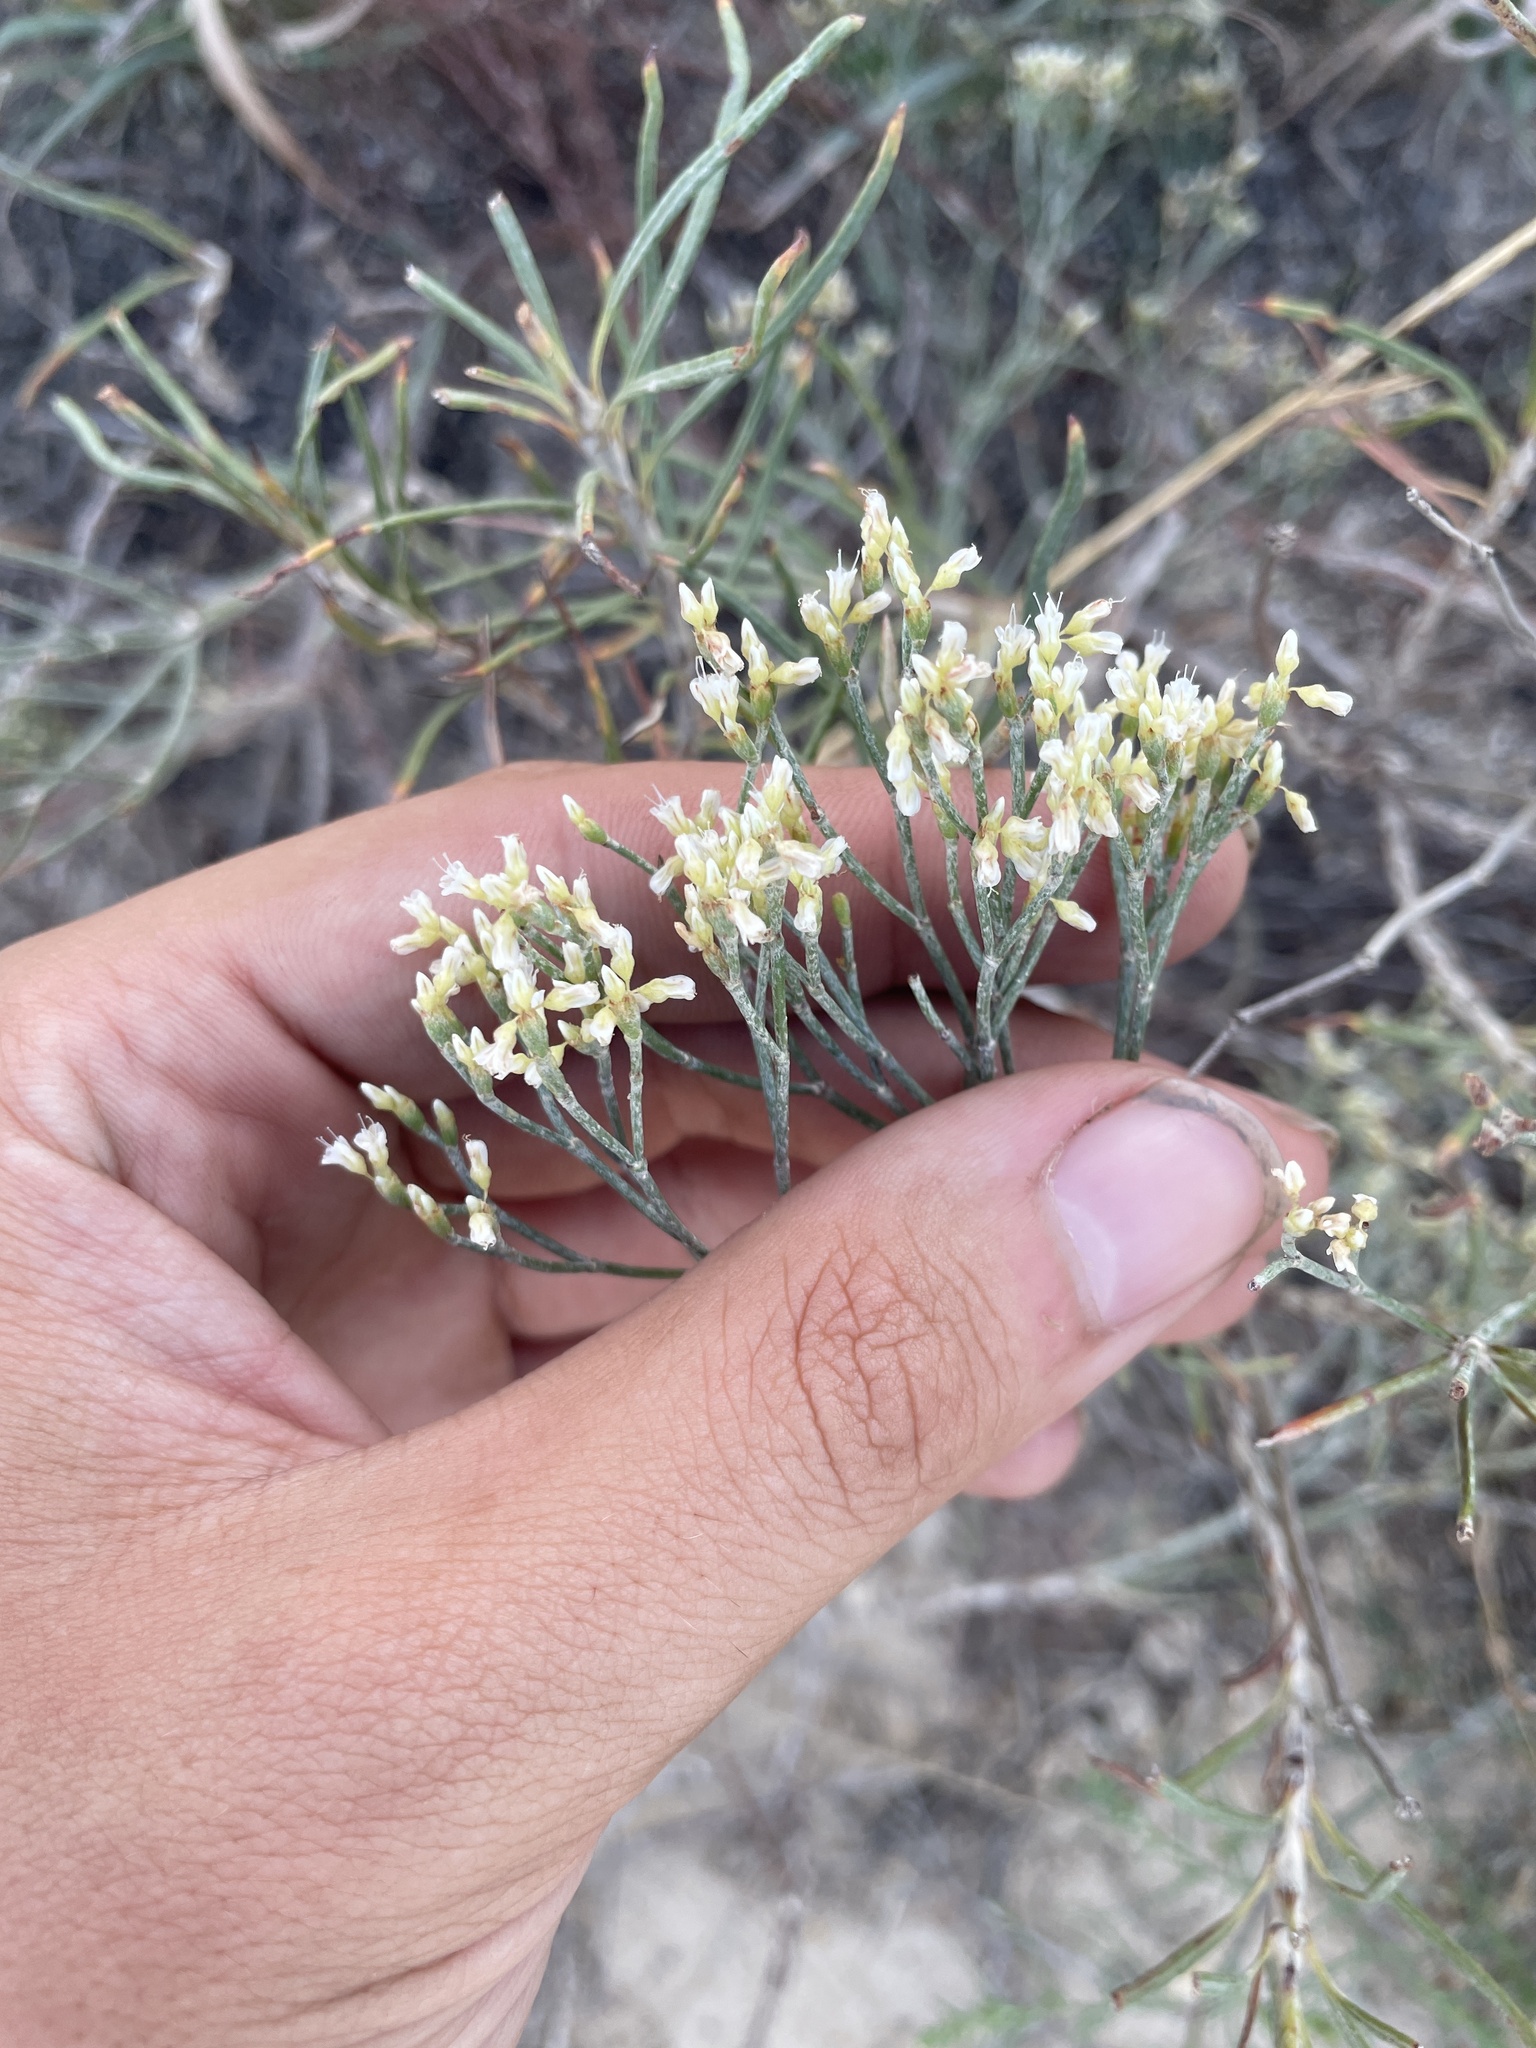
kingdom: Plantae
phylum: Tracheophyta
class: Magnoliopsida
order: Caryophyllales
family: Polygonaceae
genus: Eriogonum
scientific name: Eriogonum helichrysoides
